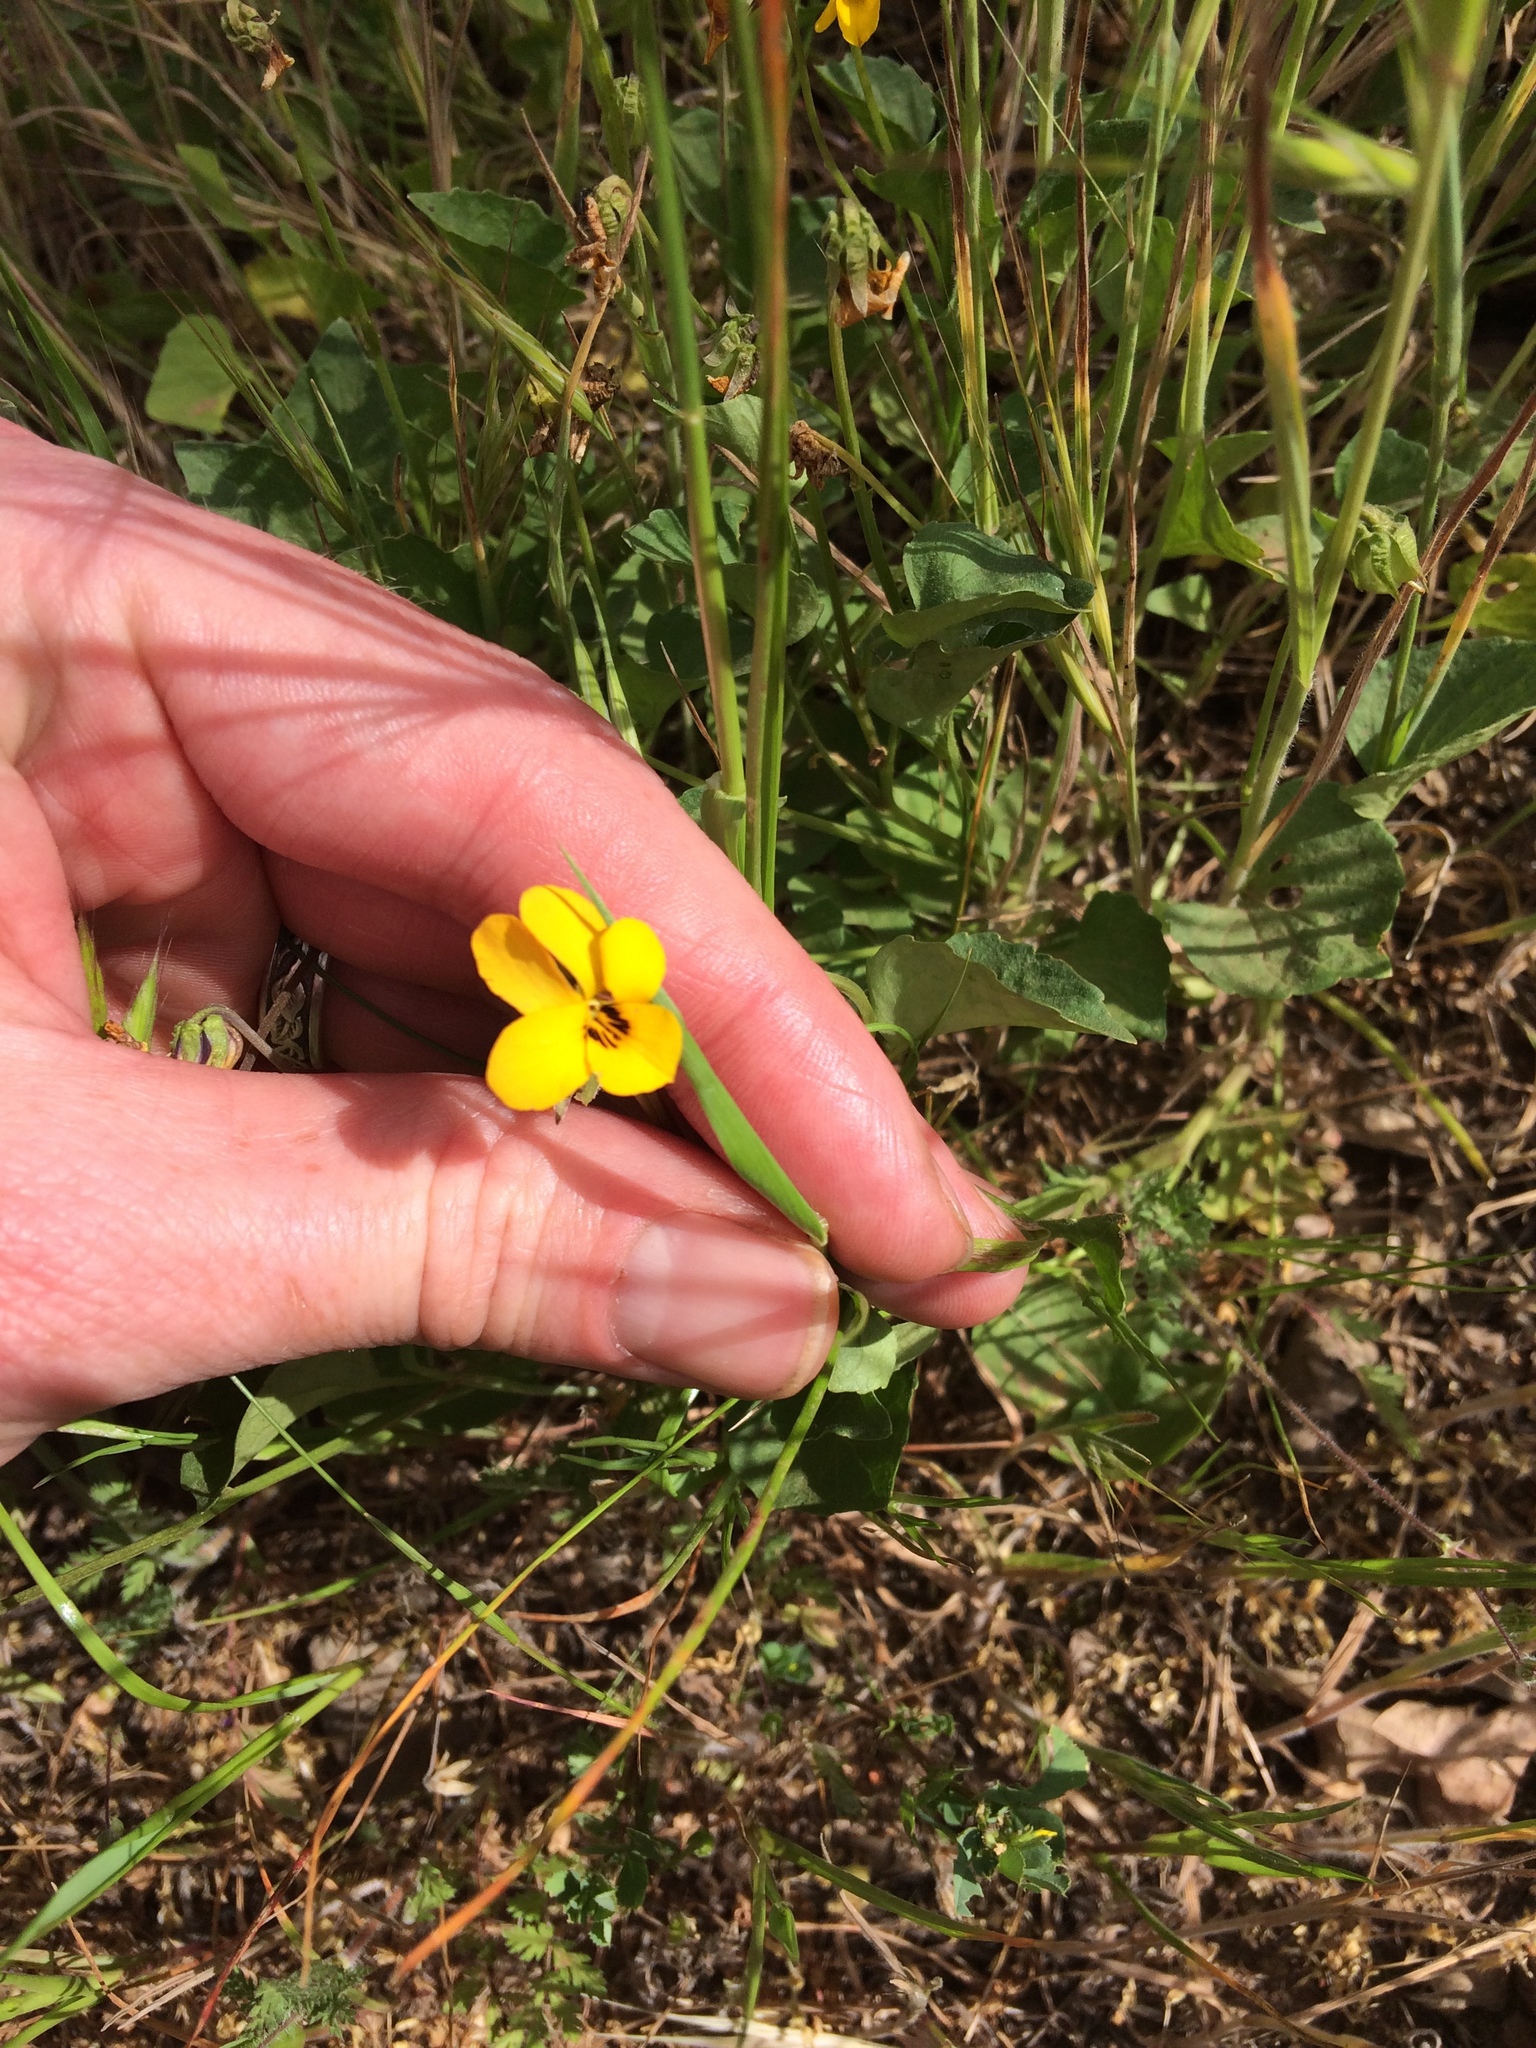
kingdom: Plantae
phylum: Tracheophyta
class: Magnoliopsida
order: Malpighiales
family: Violaceae
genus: Viola
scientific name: Viola pedunculata
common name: California golden violet
